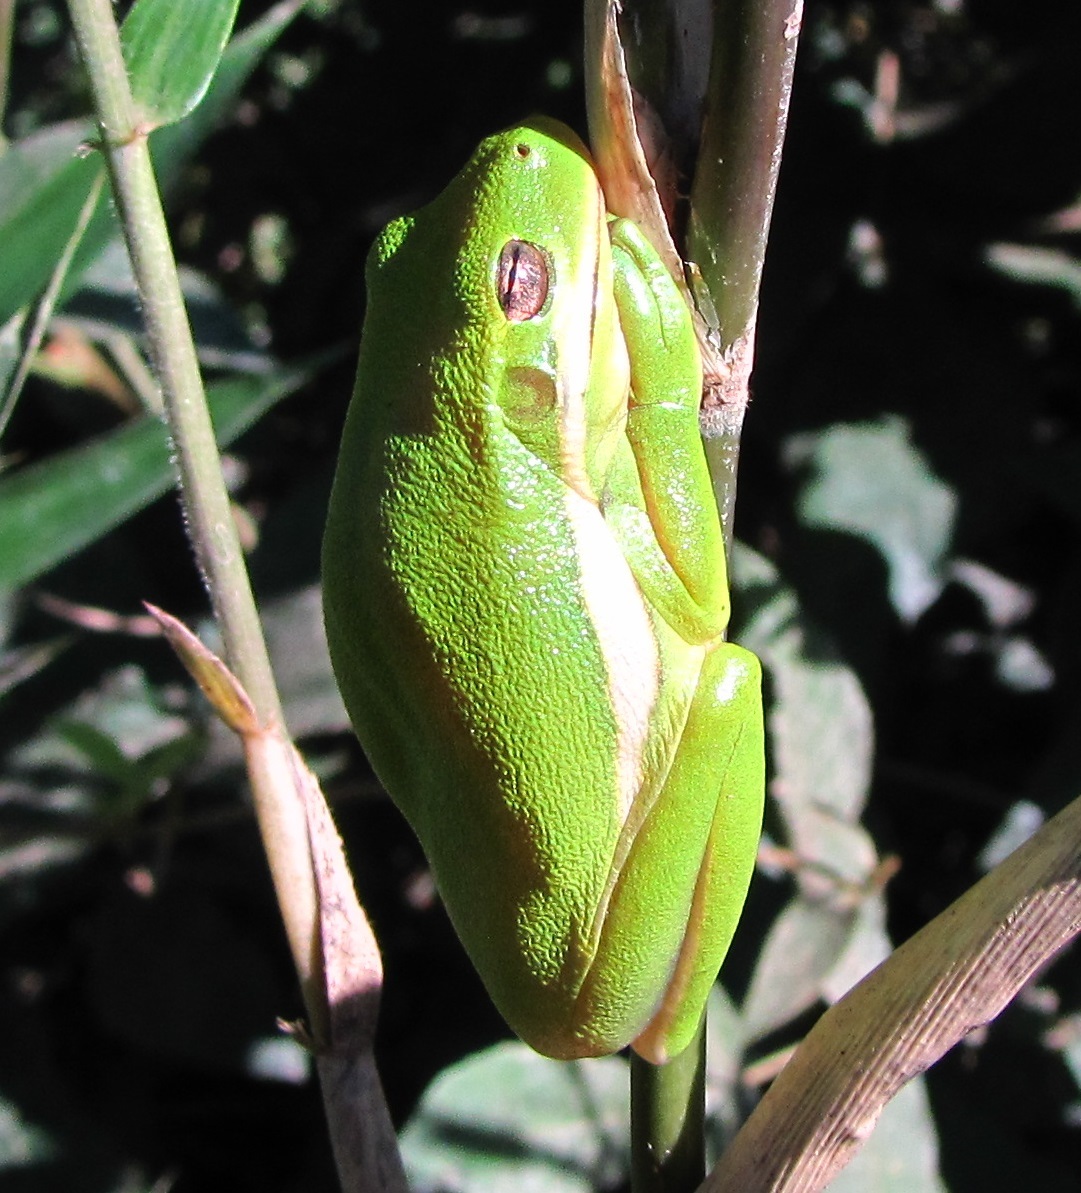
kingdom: Animalia
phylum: Chordata
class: Amphibia
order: Anura
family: Hylidae
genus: Dryophytes
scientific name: Dryophytes cinereus
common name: Green treefrog
